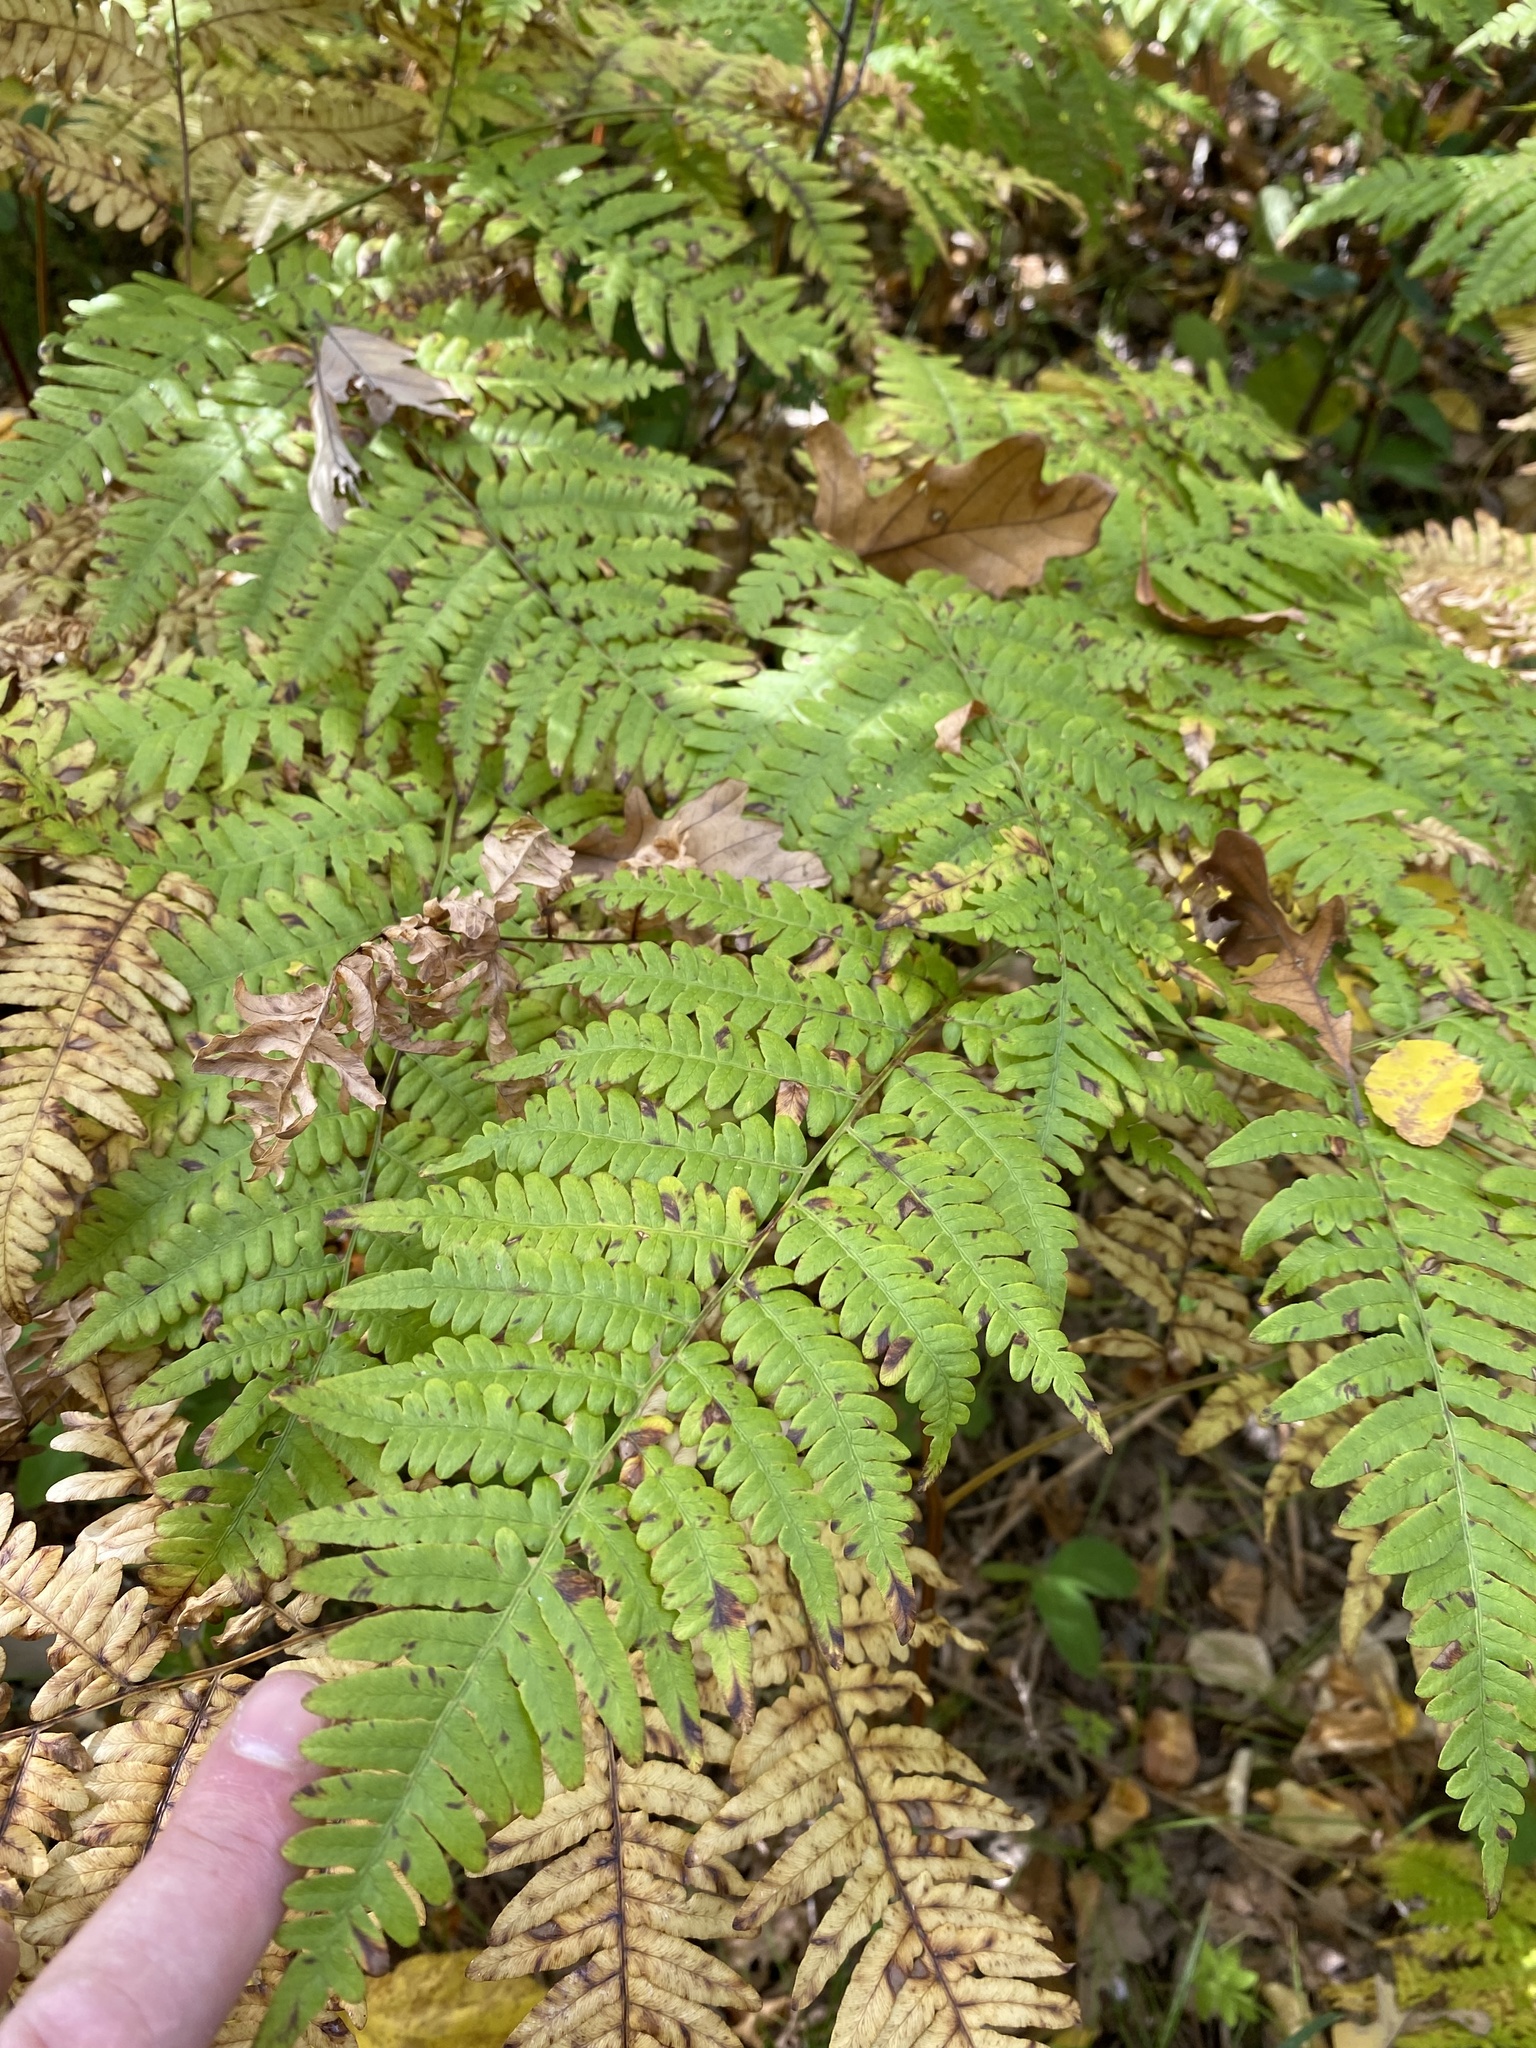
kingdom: Plantae
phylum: Tracheophyta
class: Polypodiopsida
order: Polypodiales
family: Dennstaedtiaceae
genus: Pteridium
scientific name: Pteridium aquilinum
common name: Bracken
